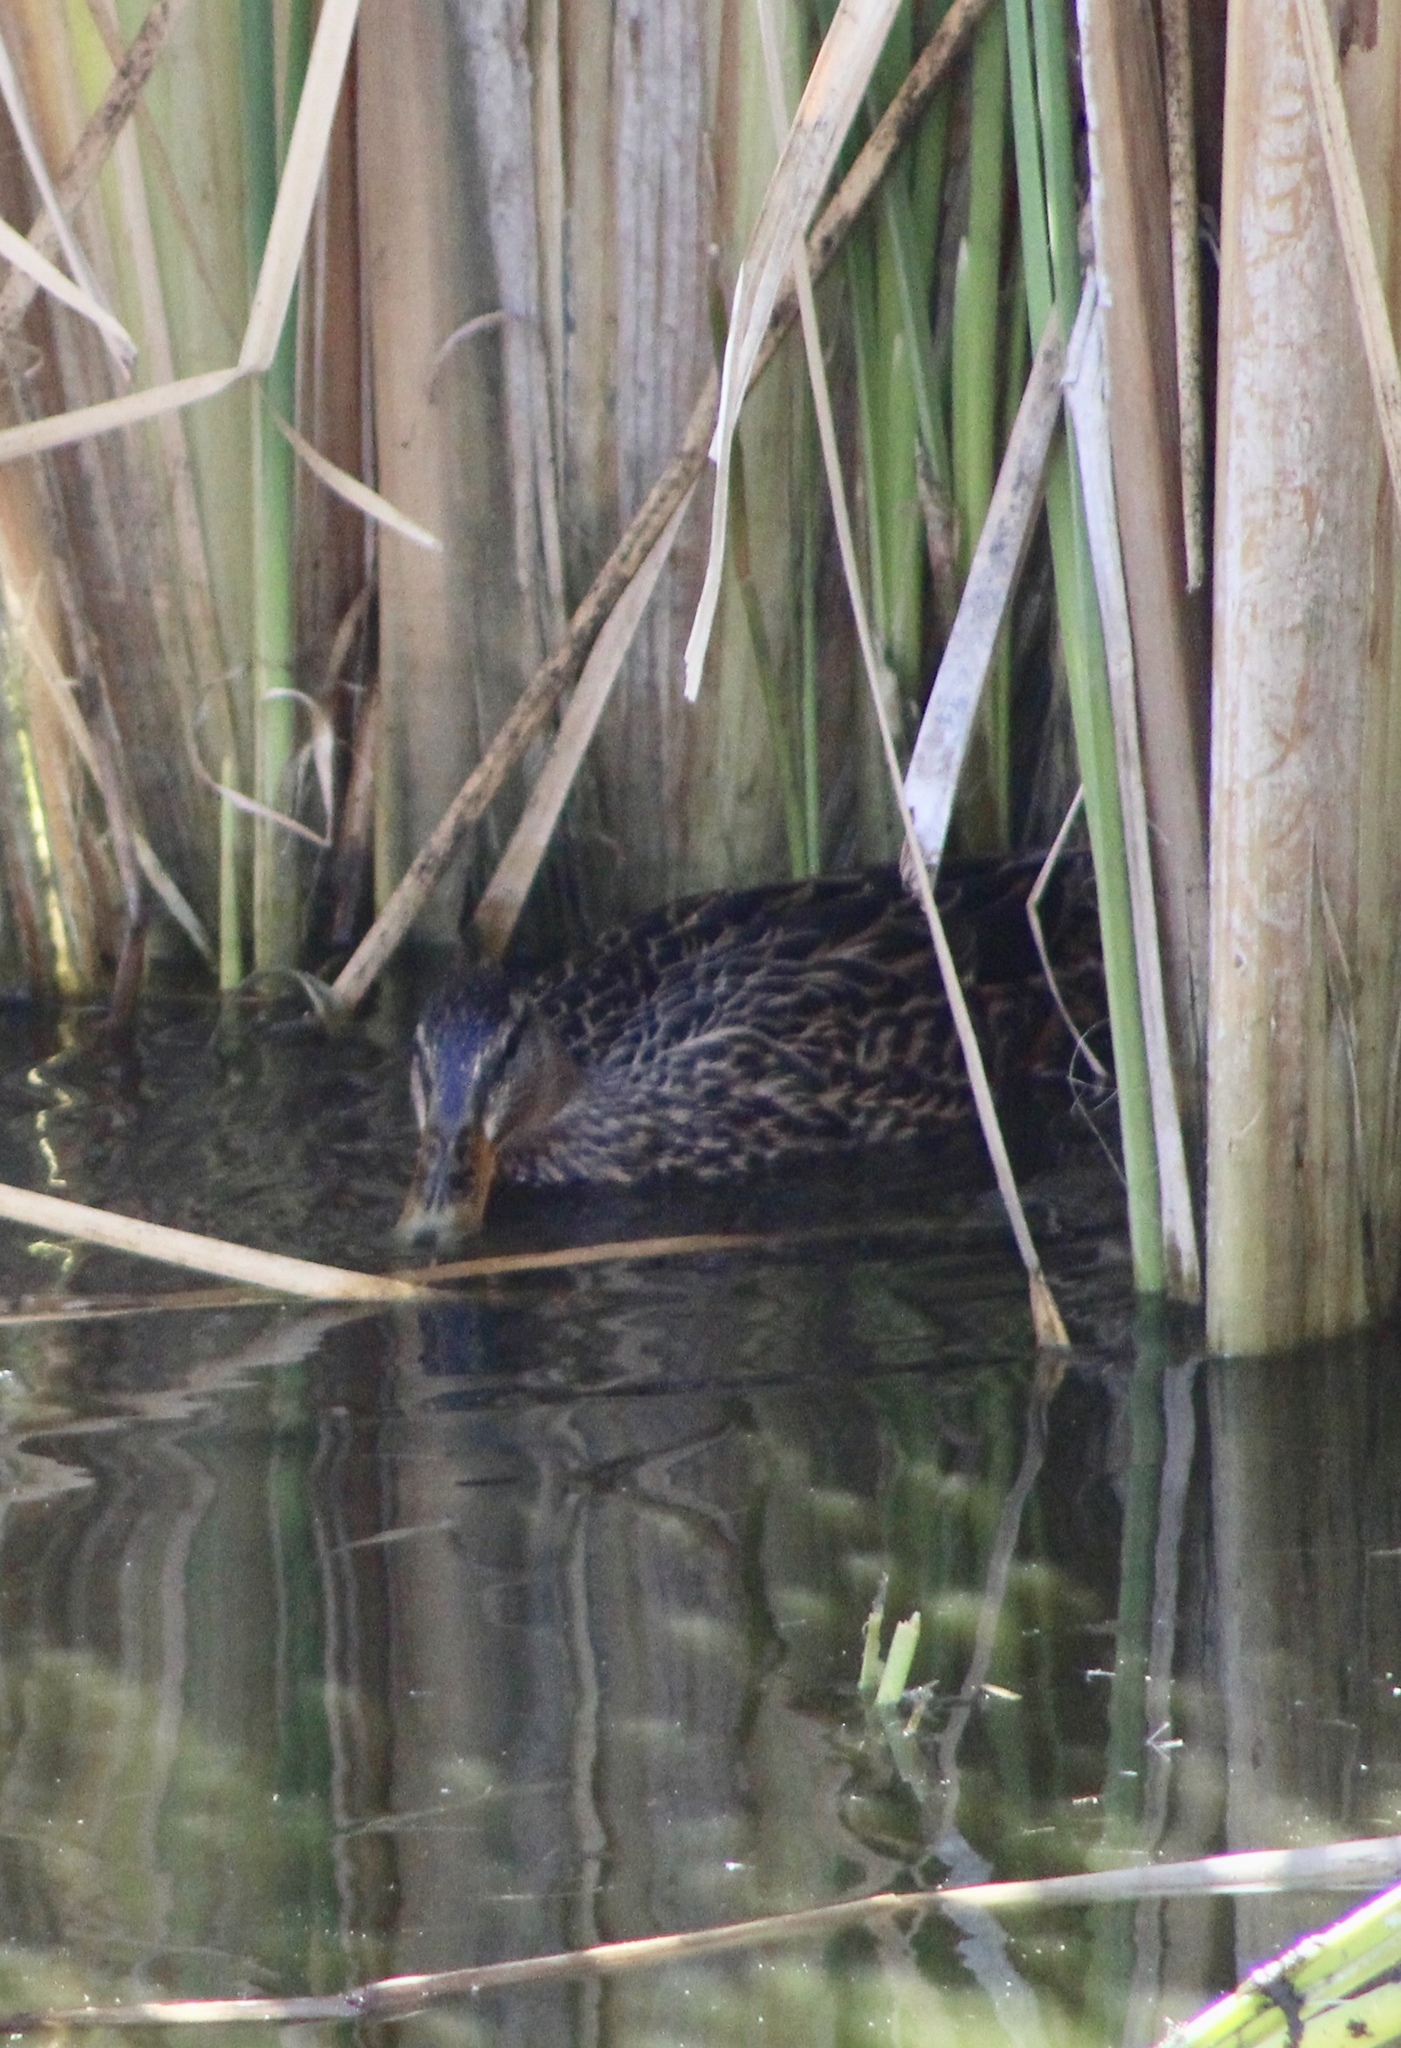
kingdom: Animalia
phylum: Chordata
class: Aves
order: Anseriformes
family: Anatidae
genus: Anas
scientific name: Anas platyrhynchos
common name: Mallard
